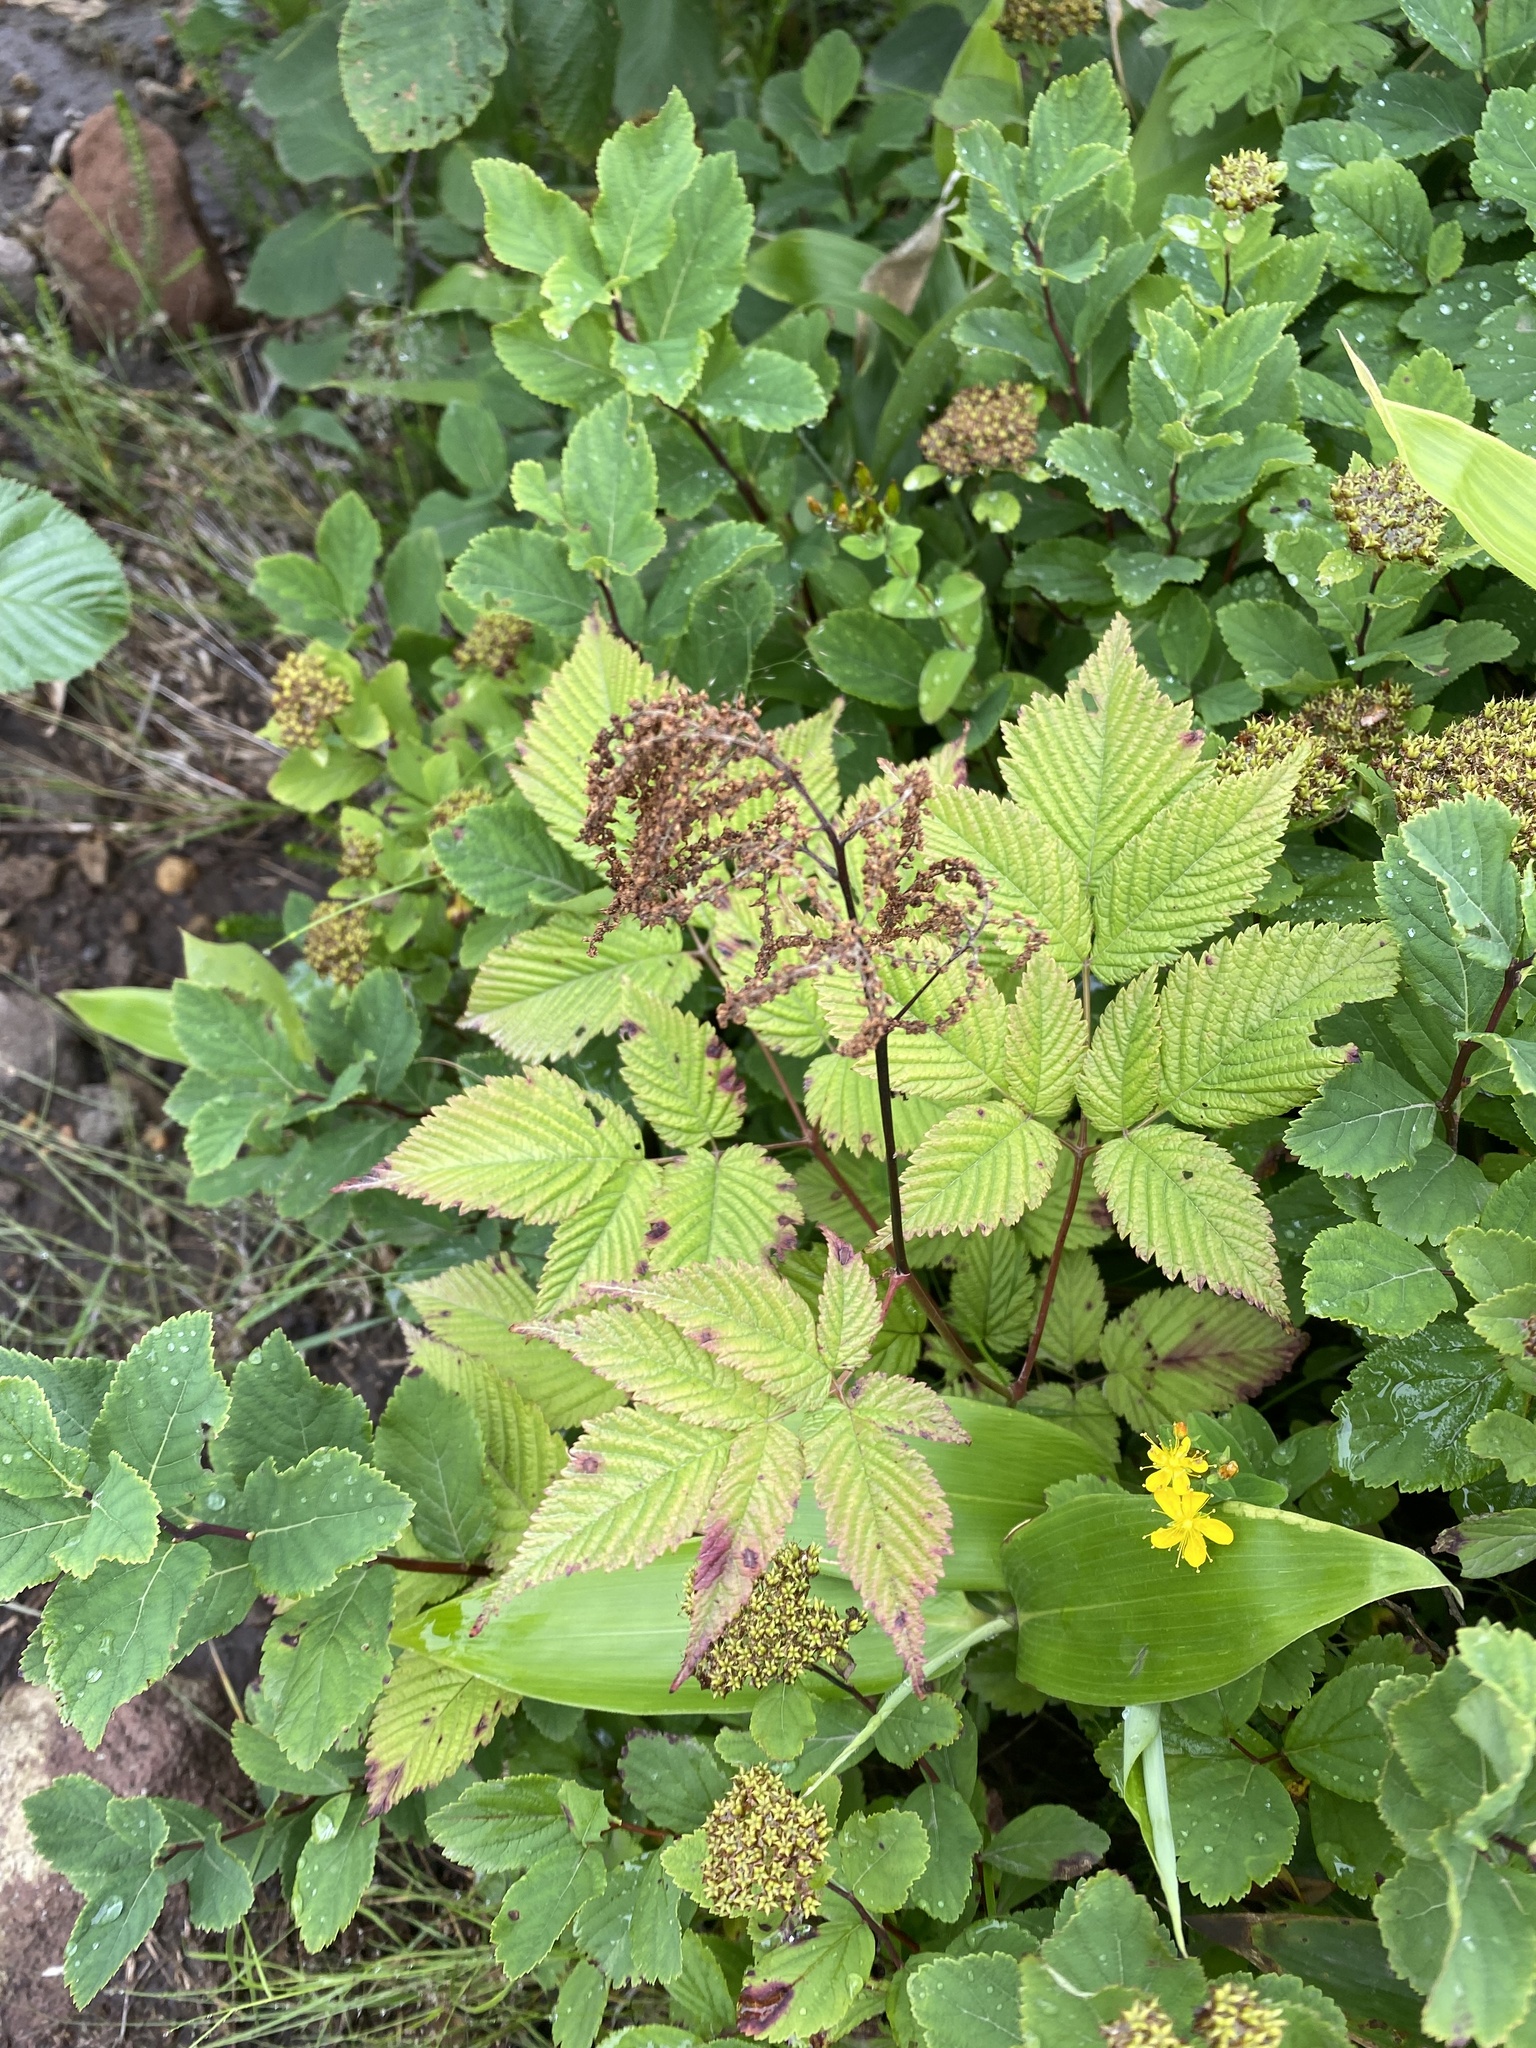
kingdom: Plantae
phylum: Tracheophyta
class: Magnoliopsida
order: Rosales
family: Rosaceae
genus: Aruncus
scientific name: Aruncus dioicus
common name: Buck's-beard
